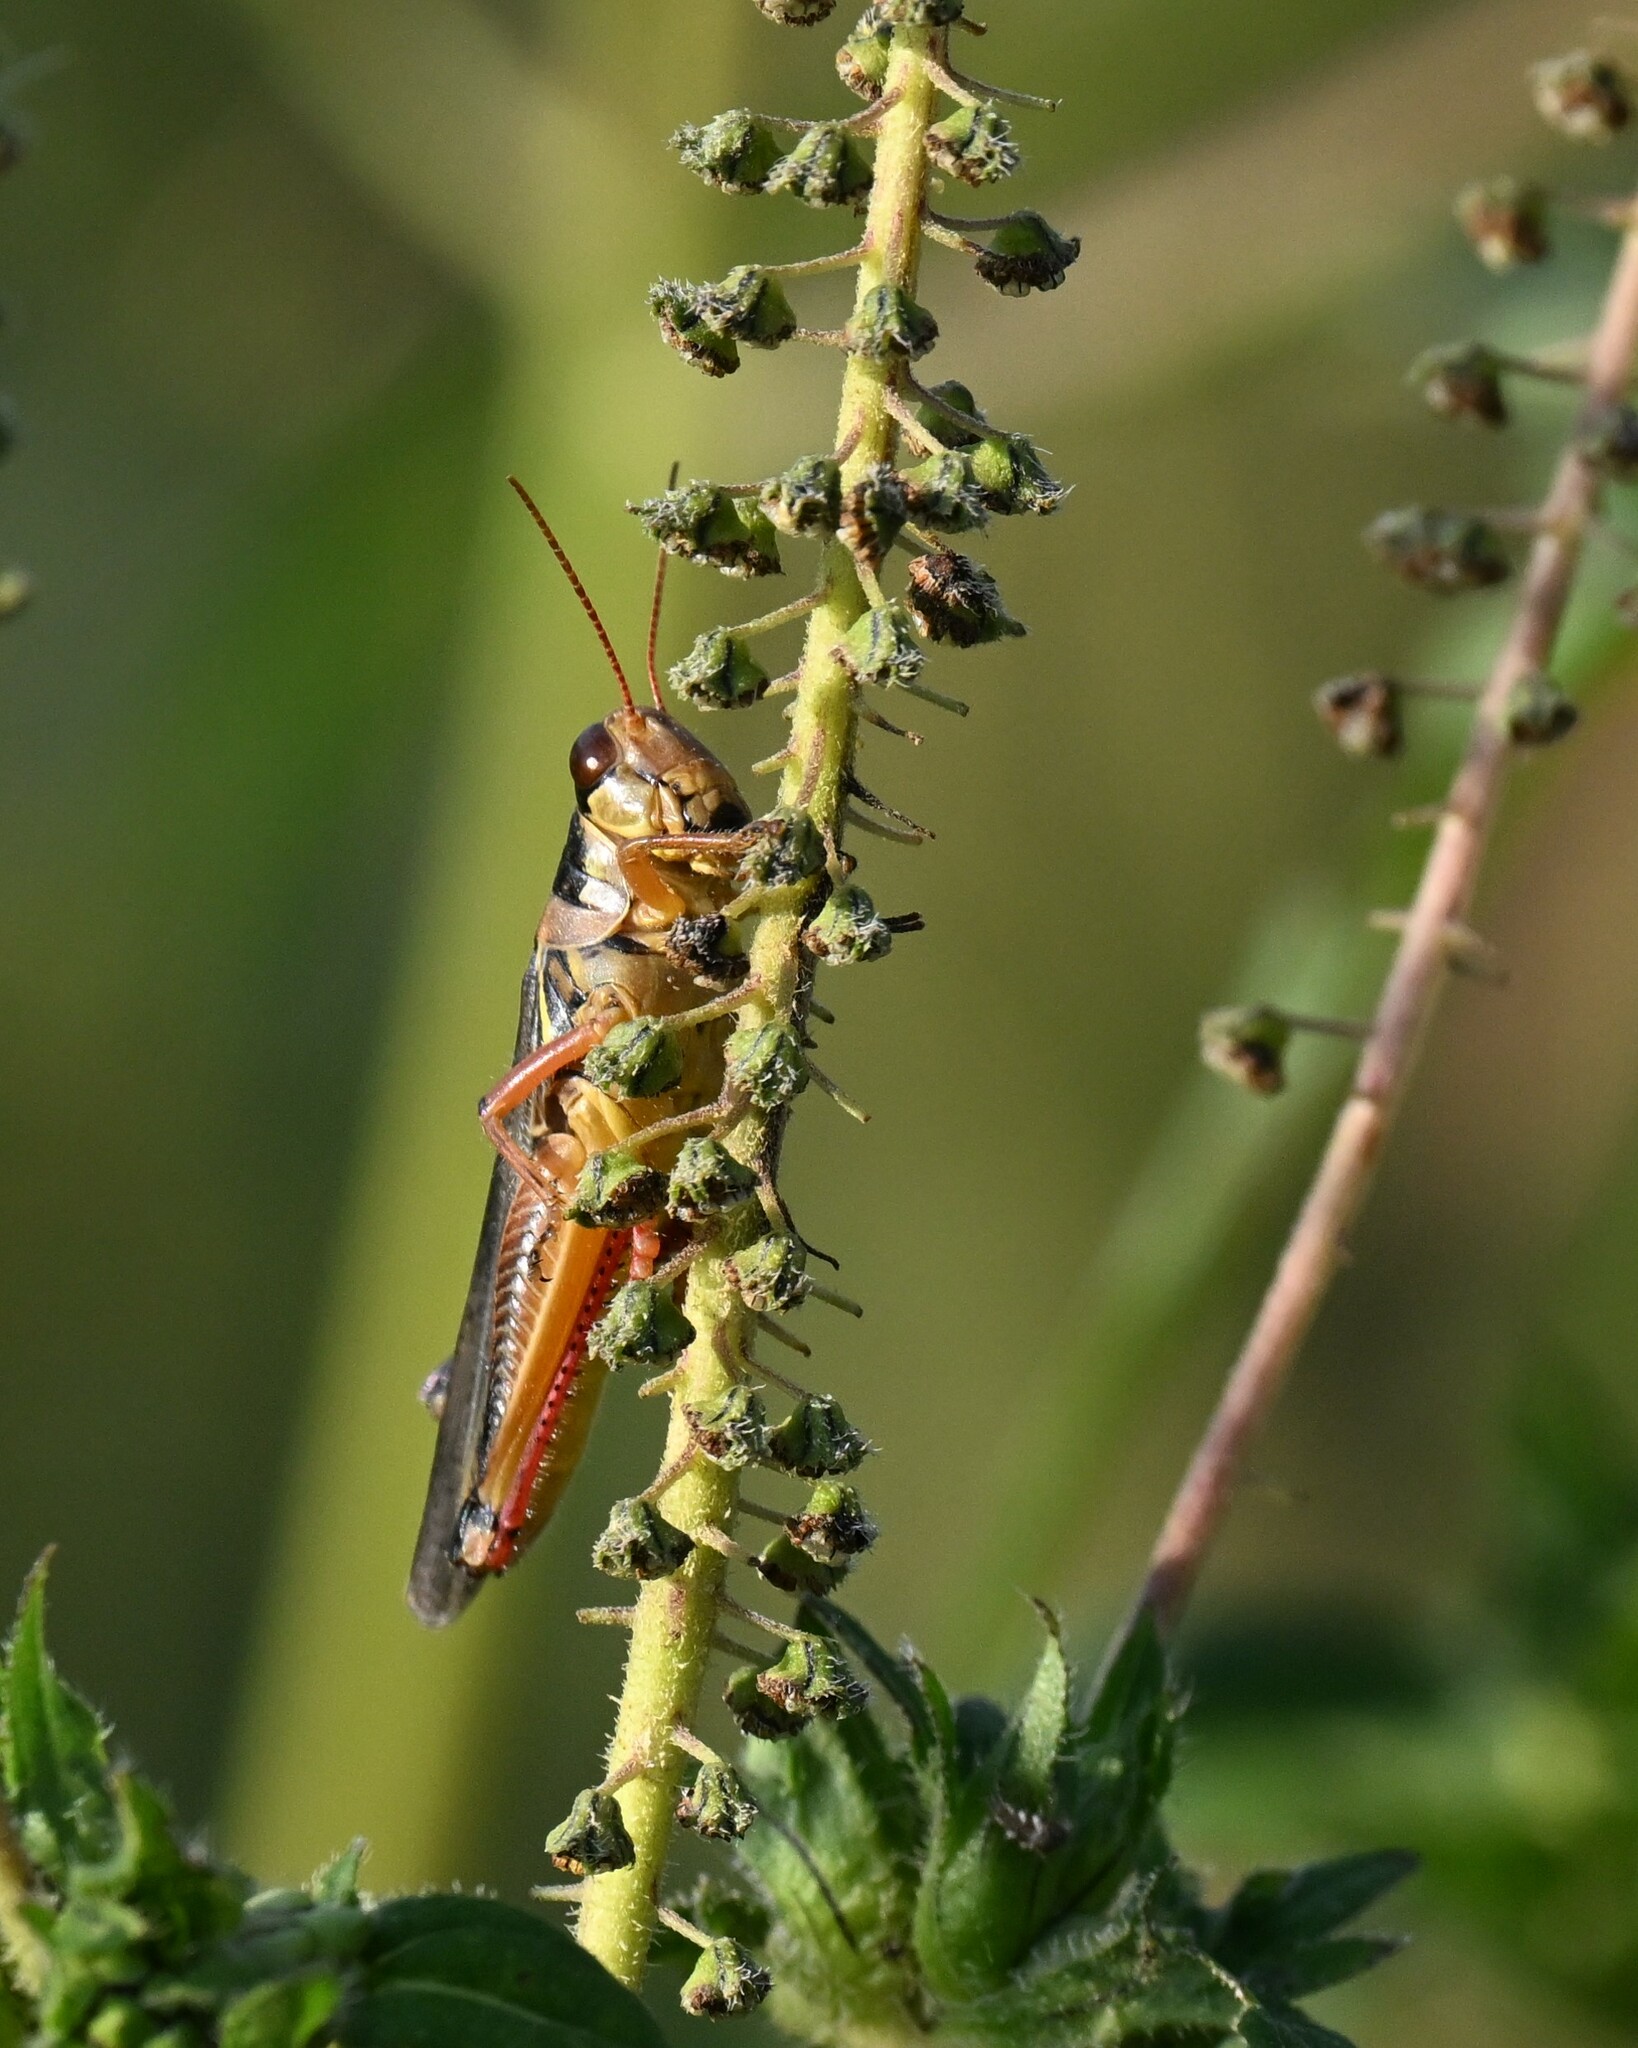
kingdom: Animalia
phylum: Arthropoda
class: Insecta
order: Orthoptera
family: Acrididae
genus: Melanoplus
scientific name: Melanoplus femurrubrum
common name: Red-legged grasshopper
